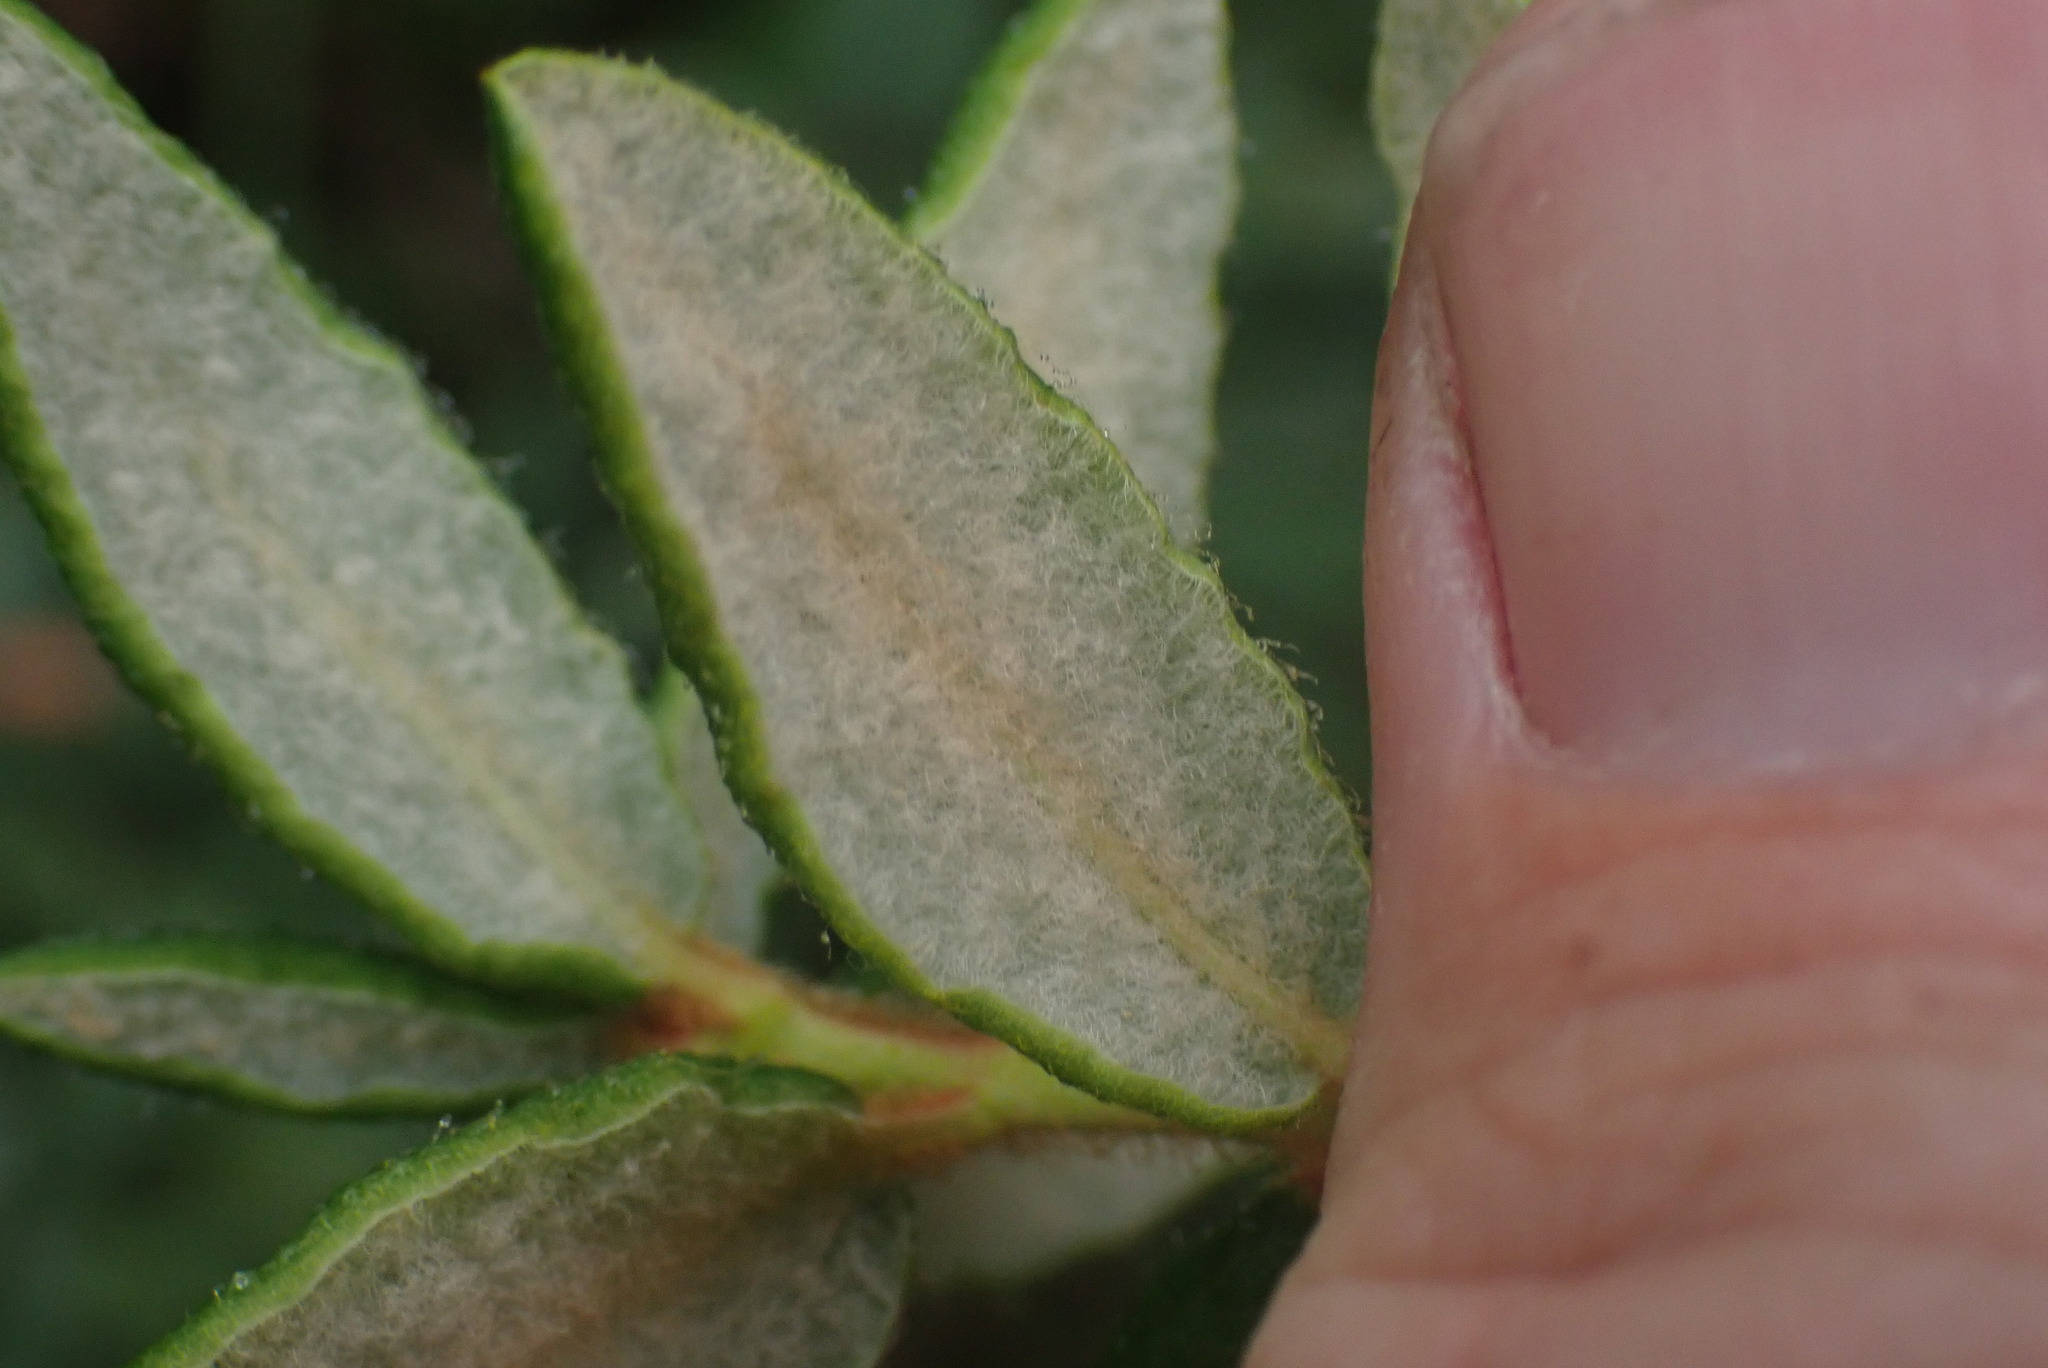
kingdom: Plantae
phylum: Tracheophyta
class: Magnoliopsida
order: Ericales
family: Ericaceae
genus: Rhododendron
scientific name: Rhododendron groenlandicum
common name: Bog labrador tea
